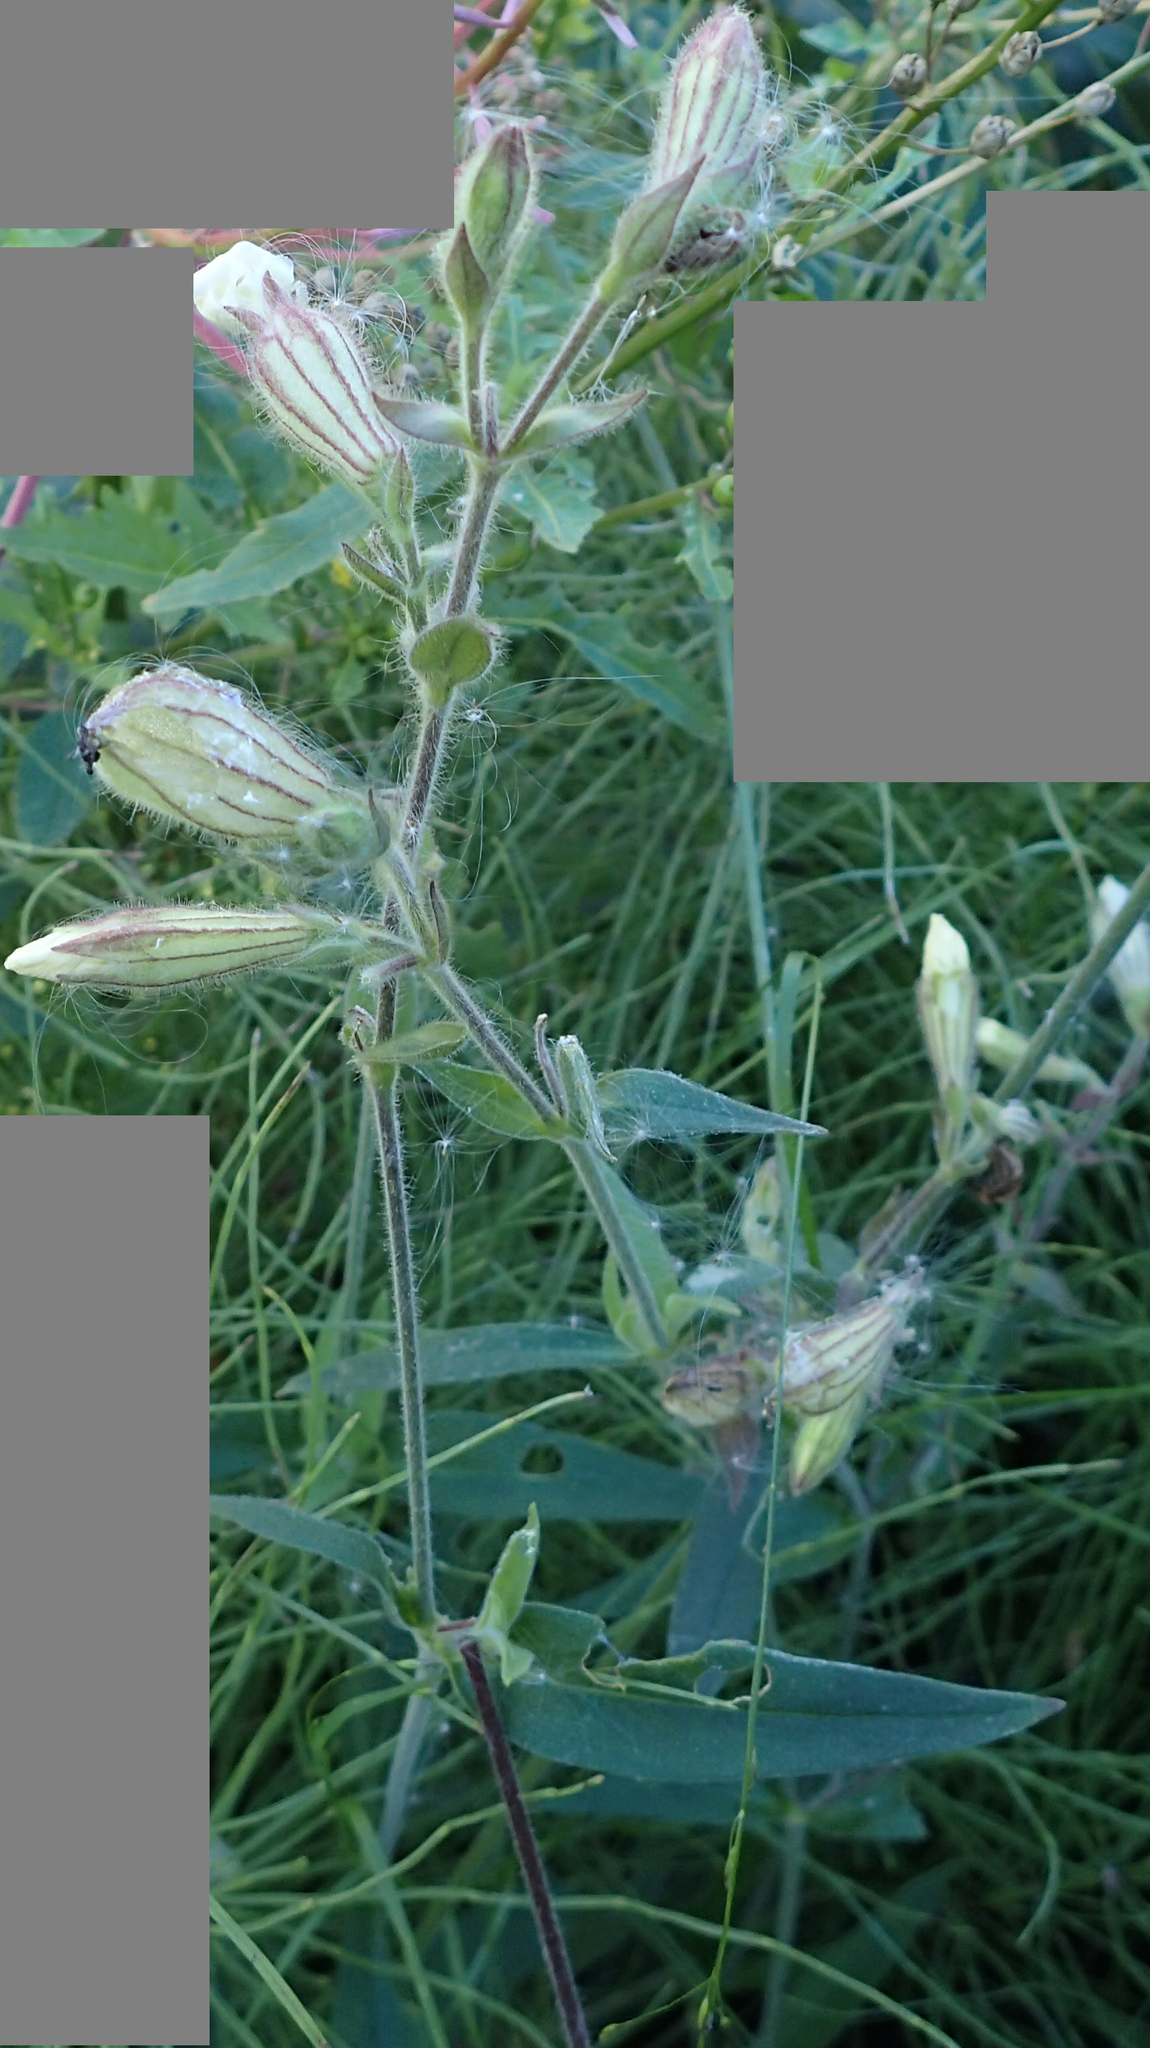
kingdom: Plantae
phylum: Tracheophyta
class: Magnoliopsida
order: Caryophyllales
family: Caryophyllaceae
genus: Silene
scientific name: Silene latifolia
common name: White campion
